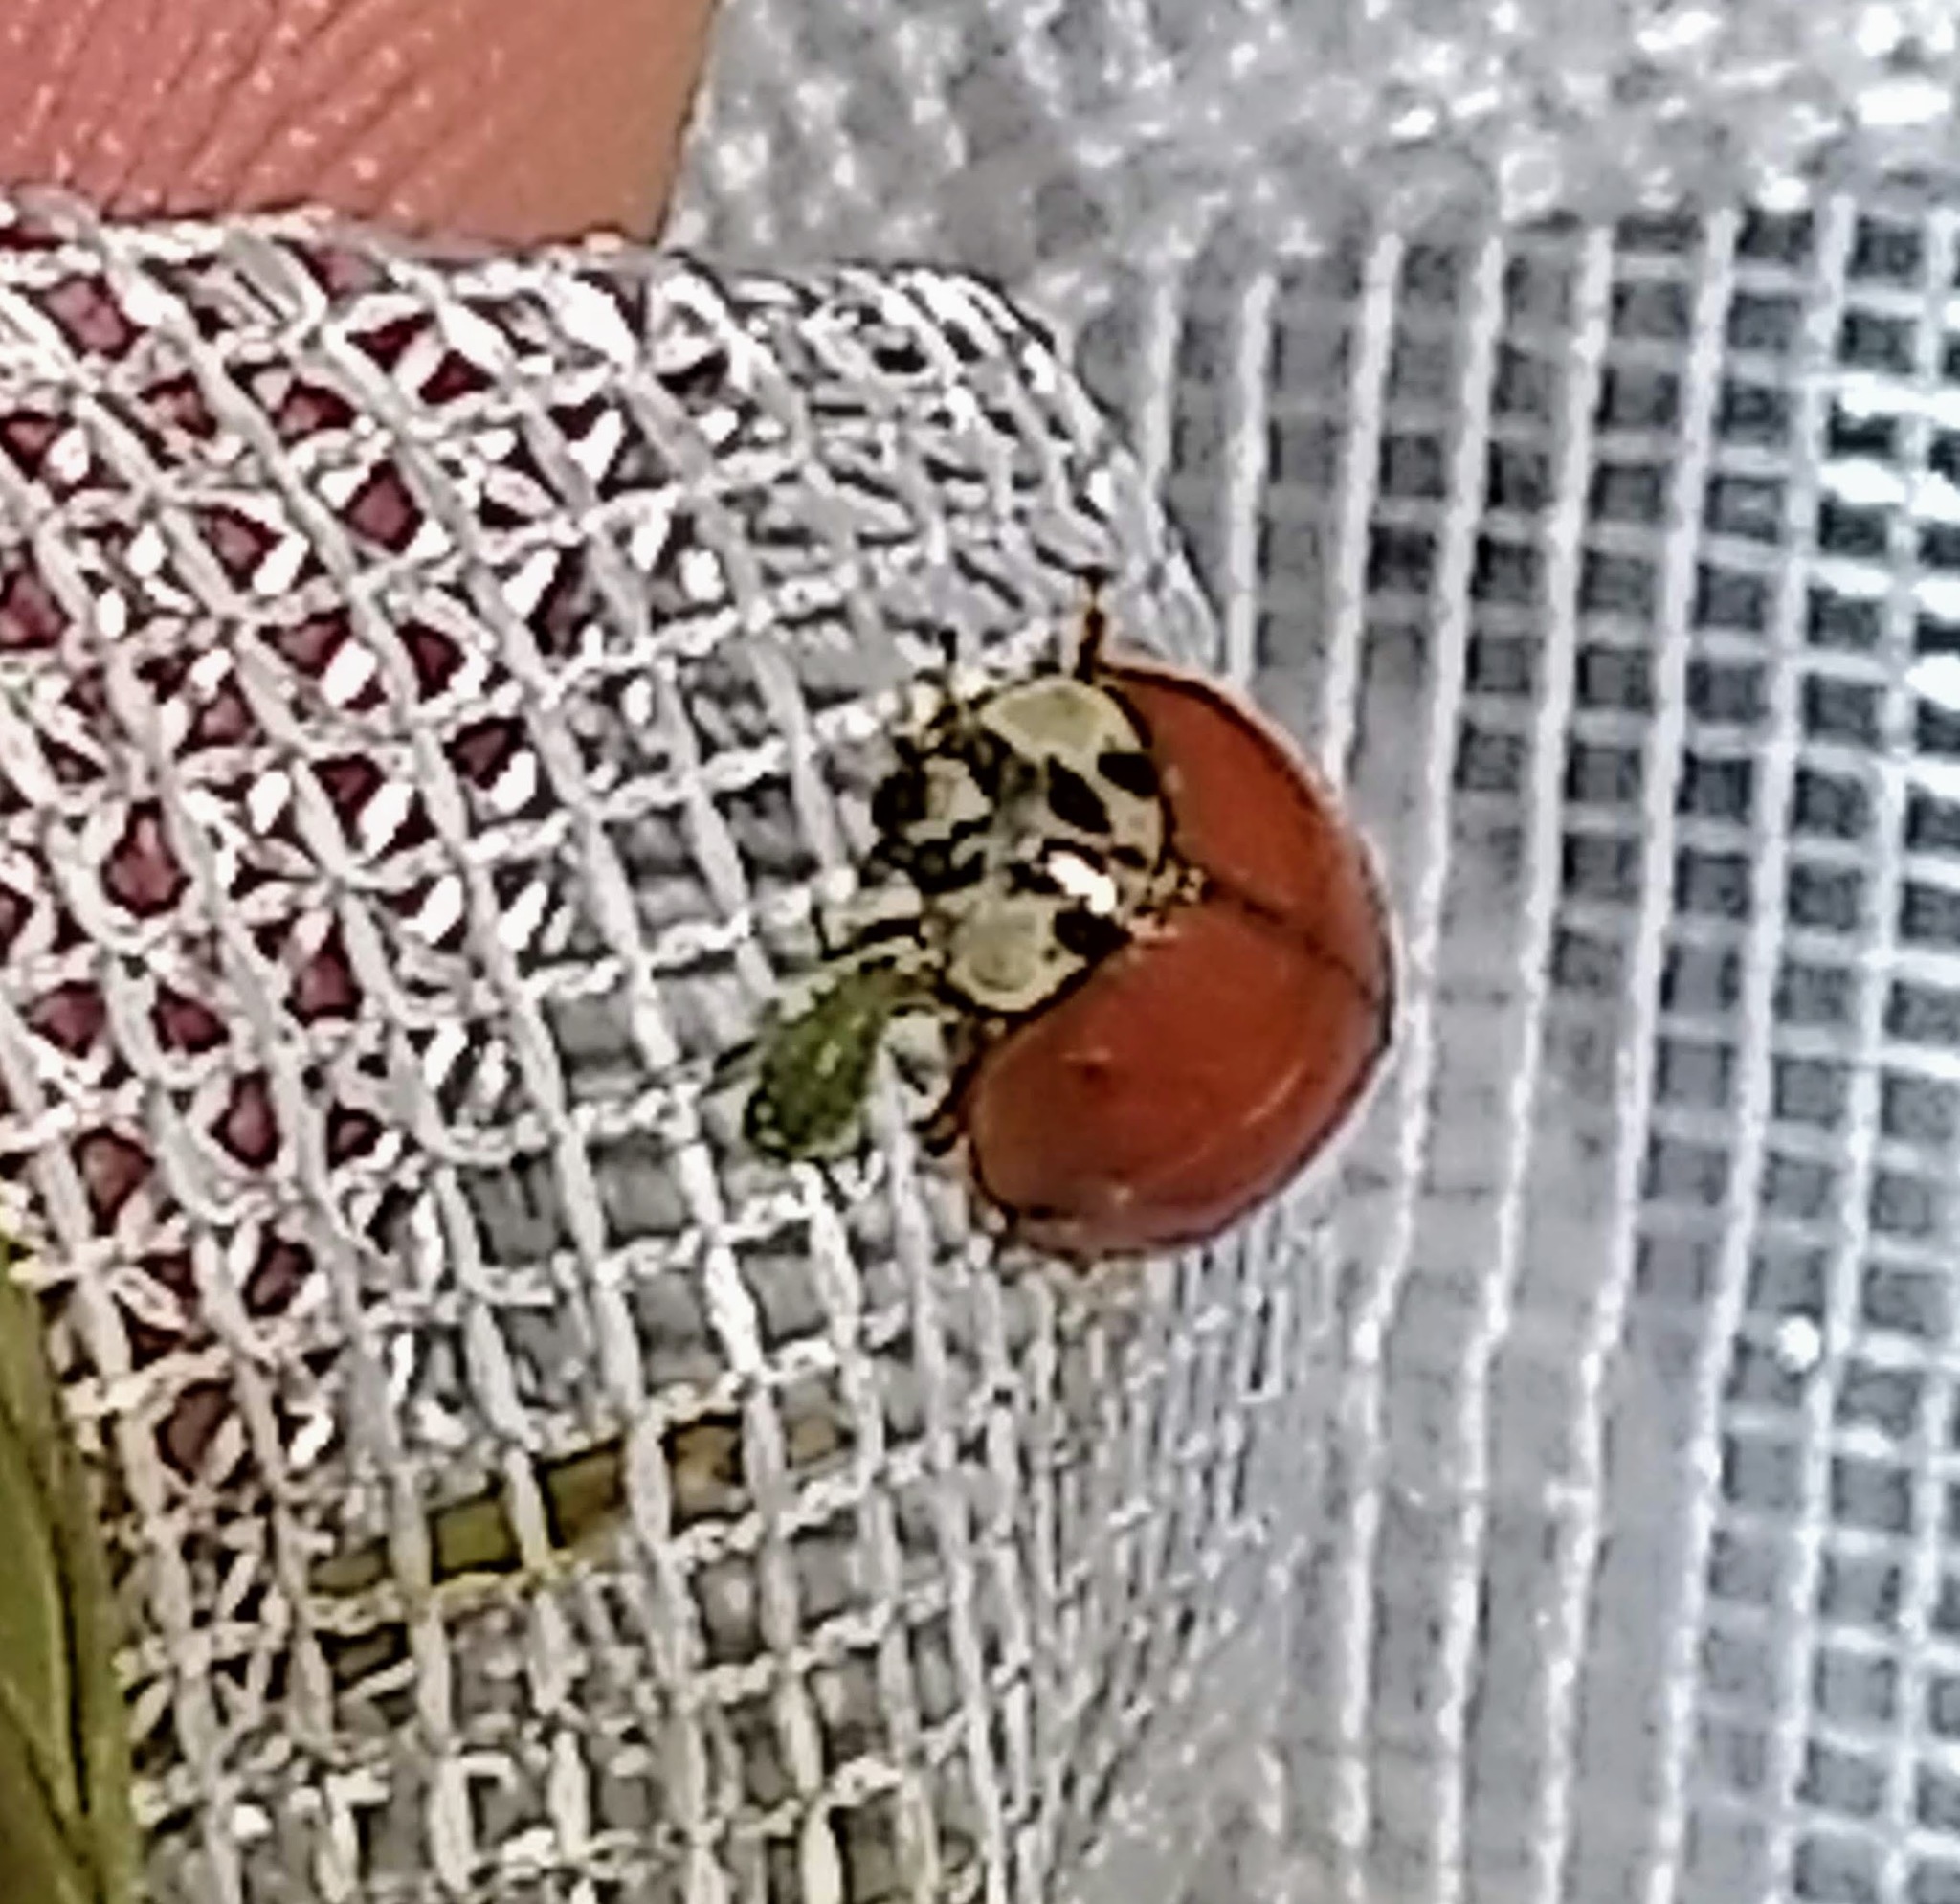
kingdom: Animalia
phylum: Arthropoda
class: Insecta
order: Coleoptera
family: Coccinellidae
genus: Harmonia
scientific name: Harmonia axyridis
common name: Harlequin ladybird
